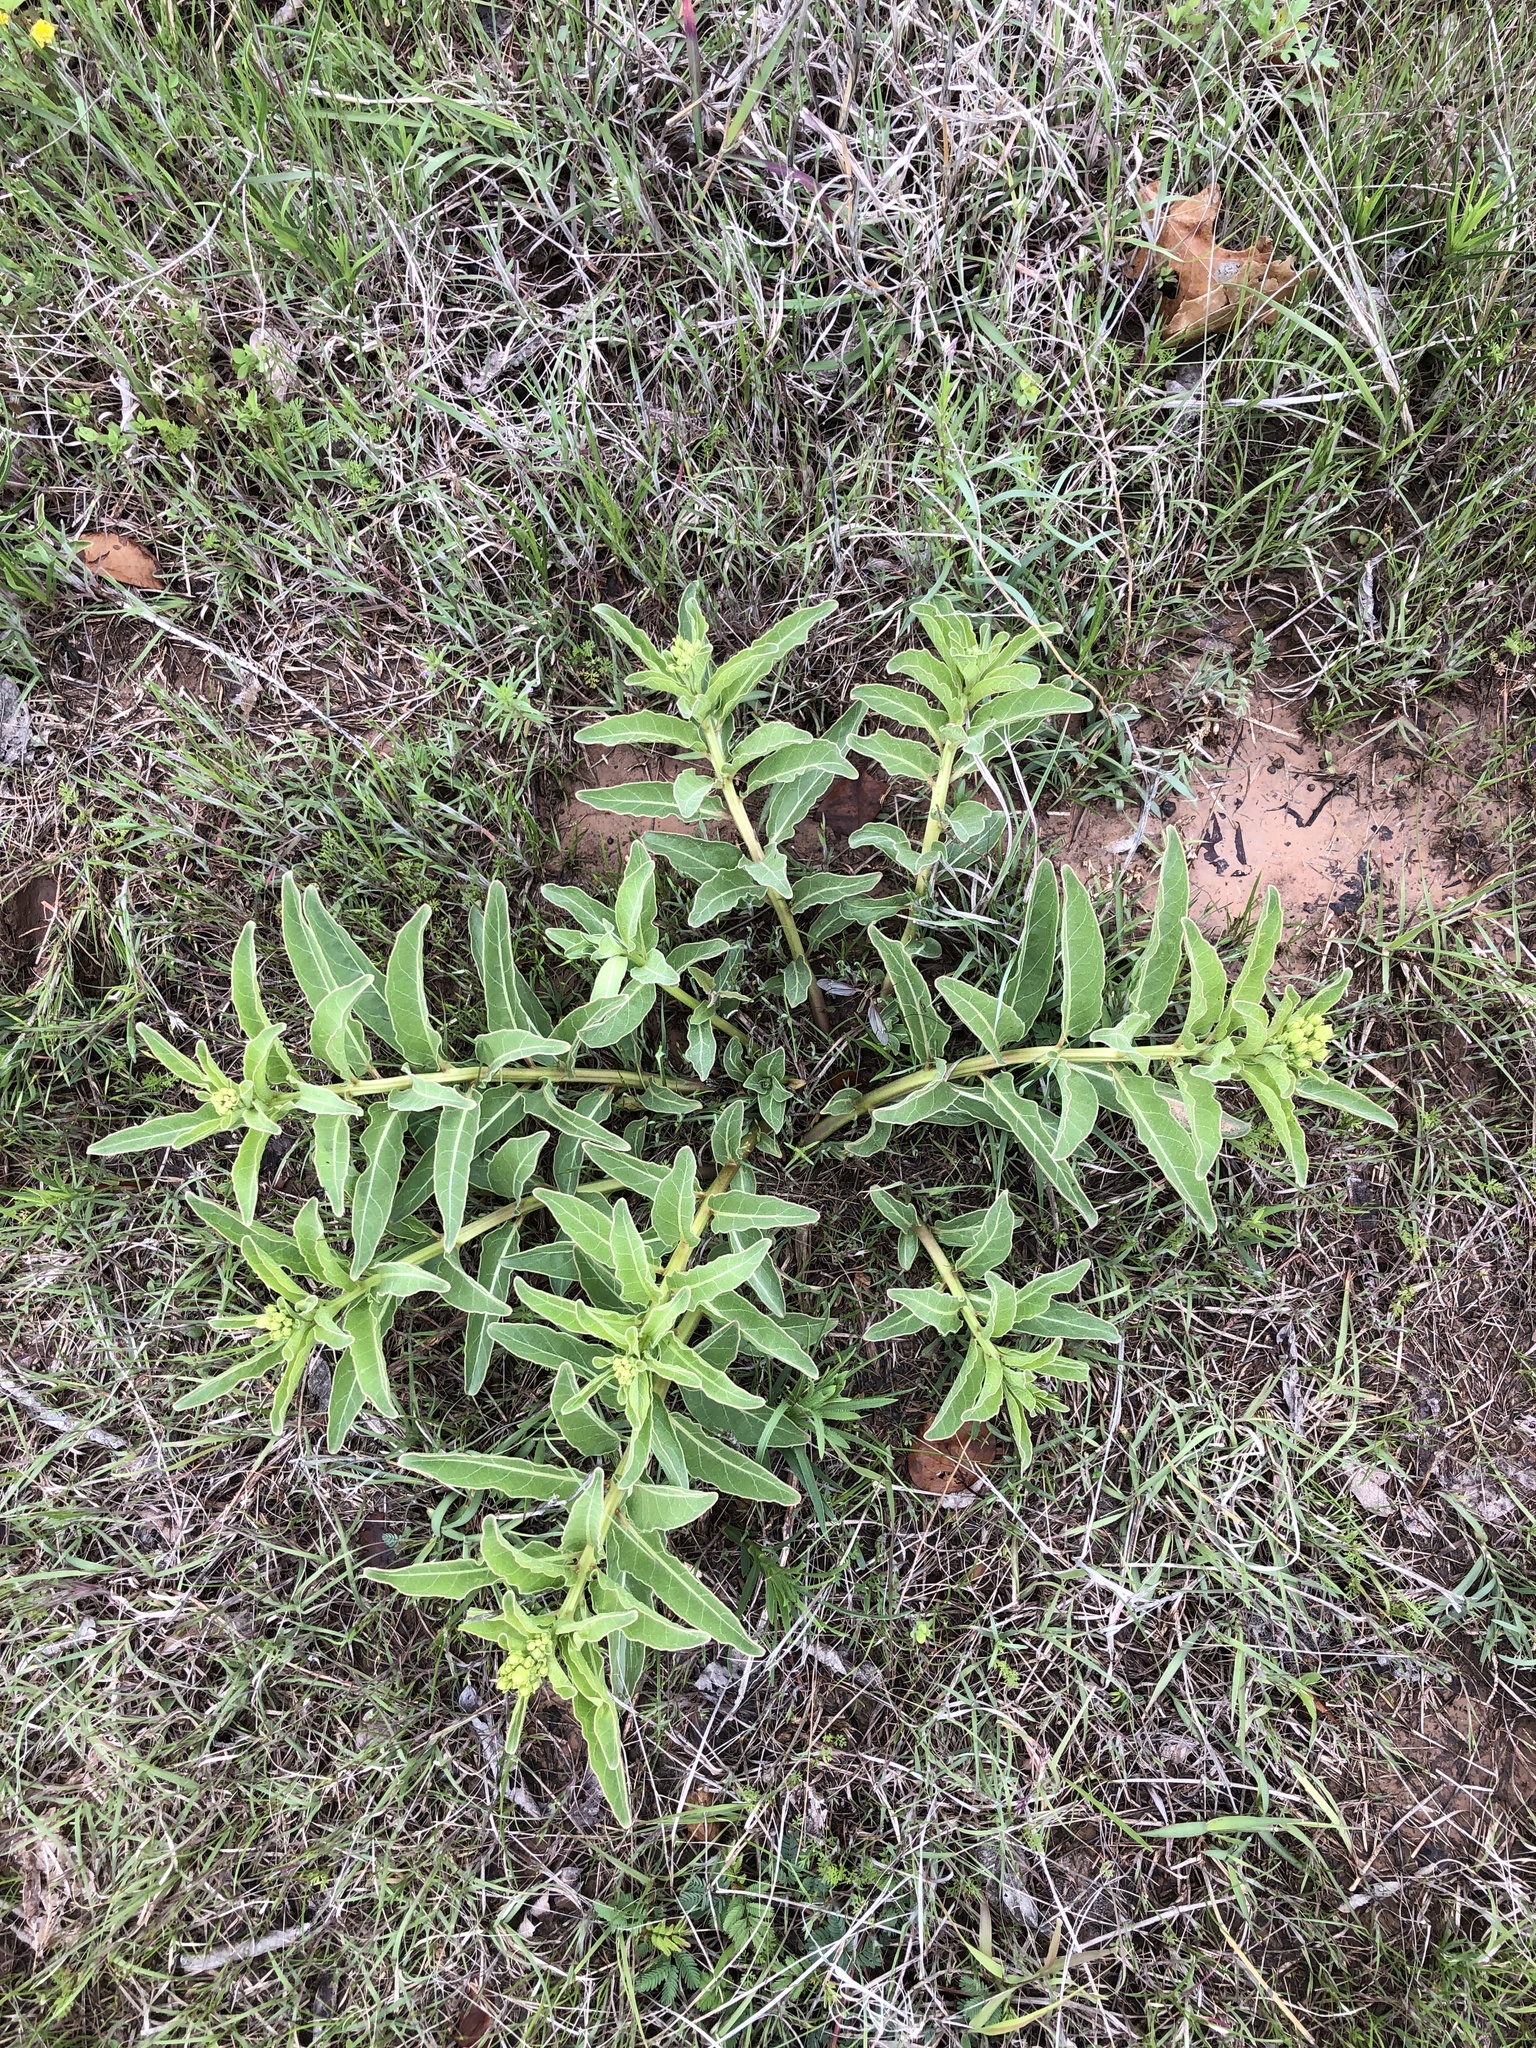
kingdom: Plantae
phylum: Tracheophyta
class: Magnoliopsida
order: Gentianales
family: Apocynaceae
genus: Asclepias
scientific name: Asclepias viridis
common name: Antelope-horns
